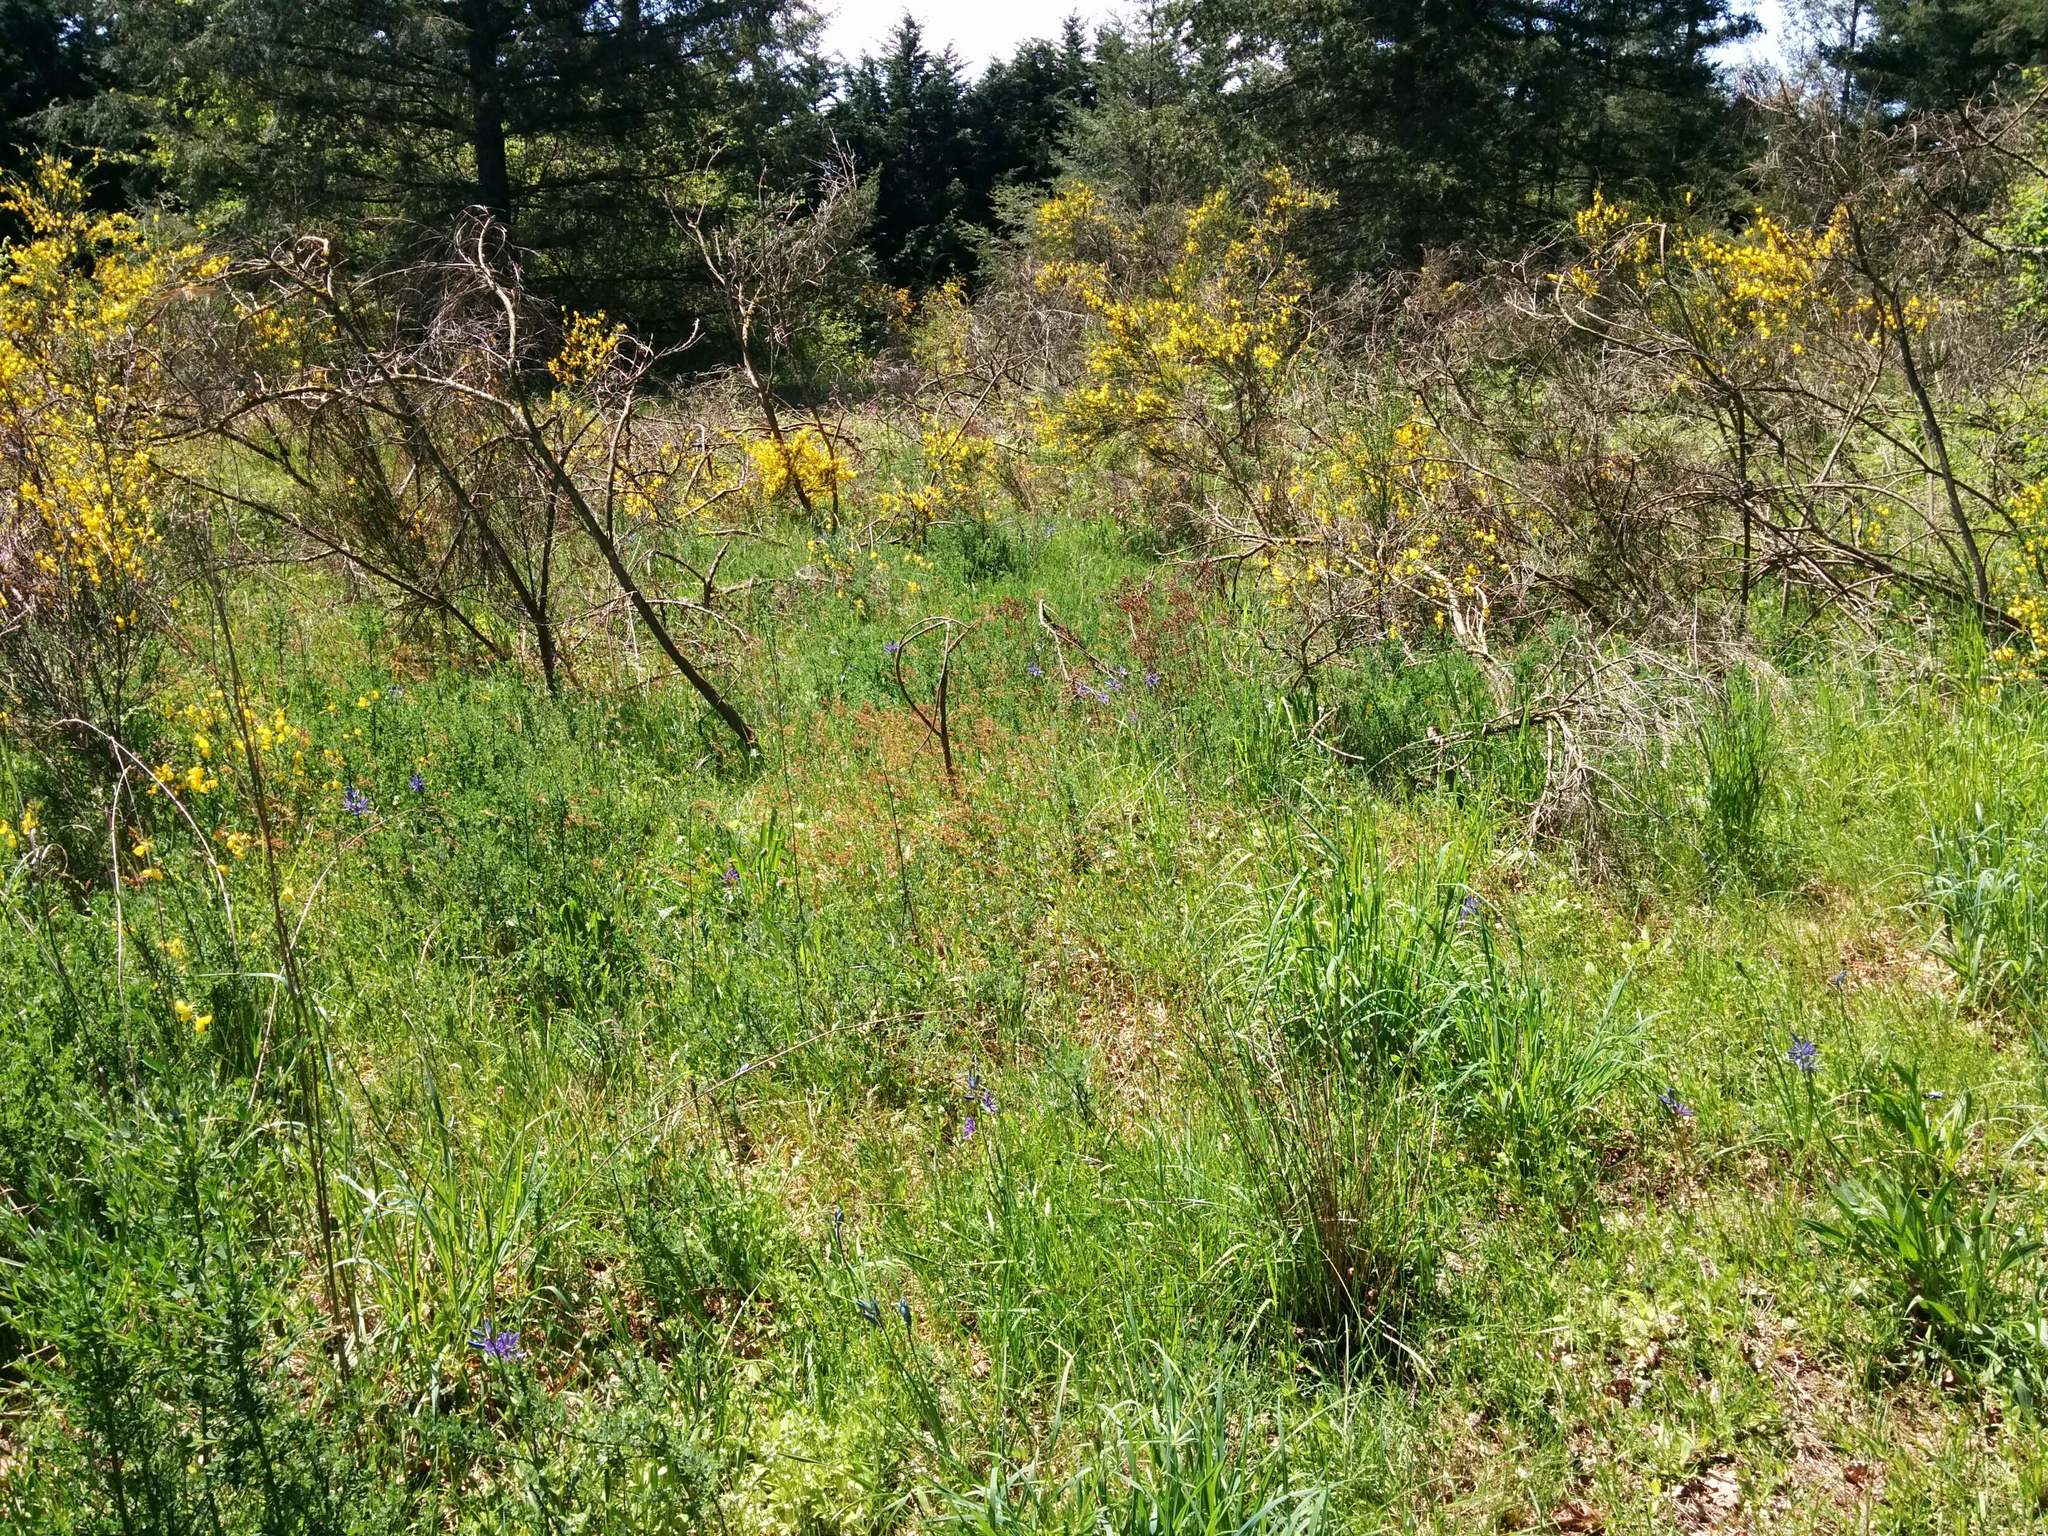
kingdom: Plantae
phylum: Tracheophyta
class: Liliopsida
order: Asparagales
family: Asparagaceae
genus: Camassia
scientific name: Camassia quamash
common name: Common camas
